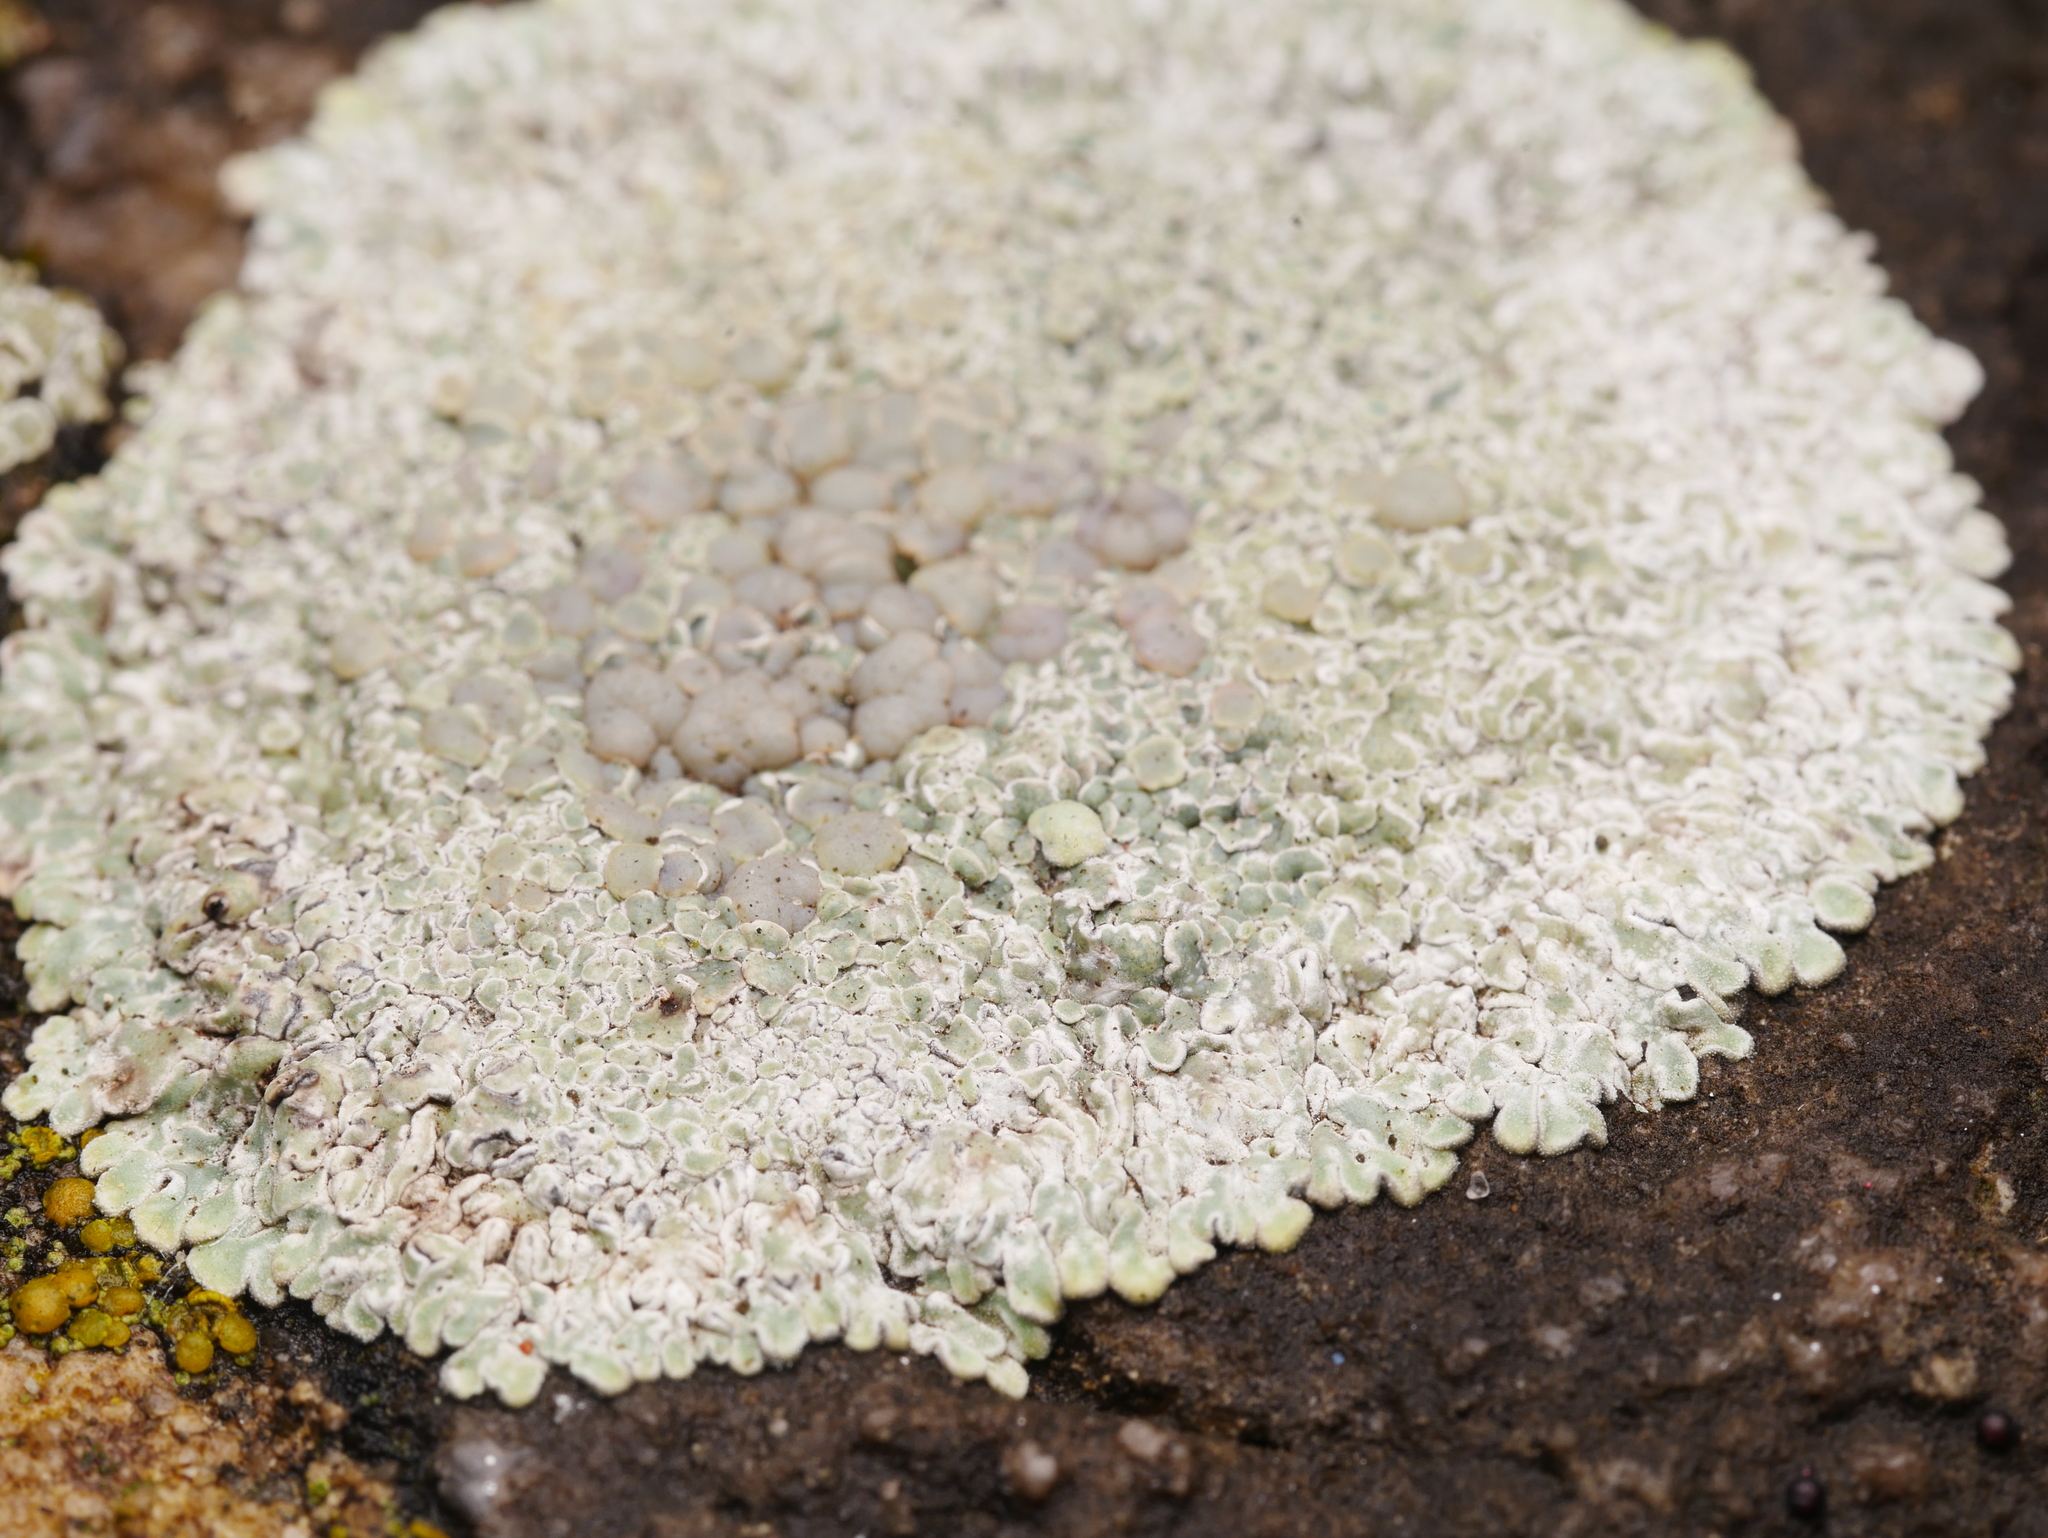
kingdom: Fungi
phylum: Ascomycota
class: Lecanoromycetes
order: Lecanorales
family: Lecanoraceae
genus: Protoparmeliopsis
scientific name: Protoparmeliopsis muralis
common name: Stonewall rim lichen
